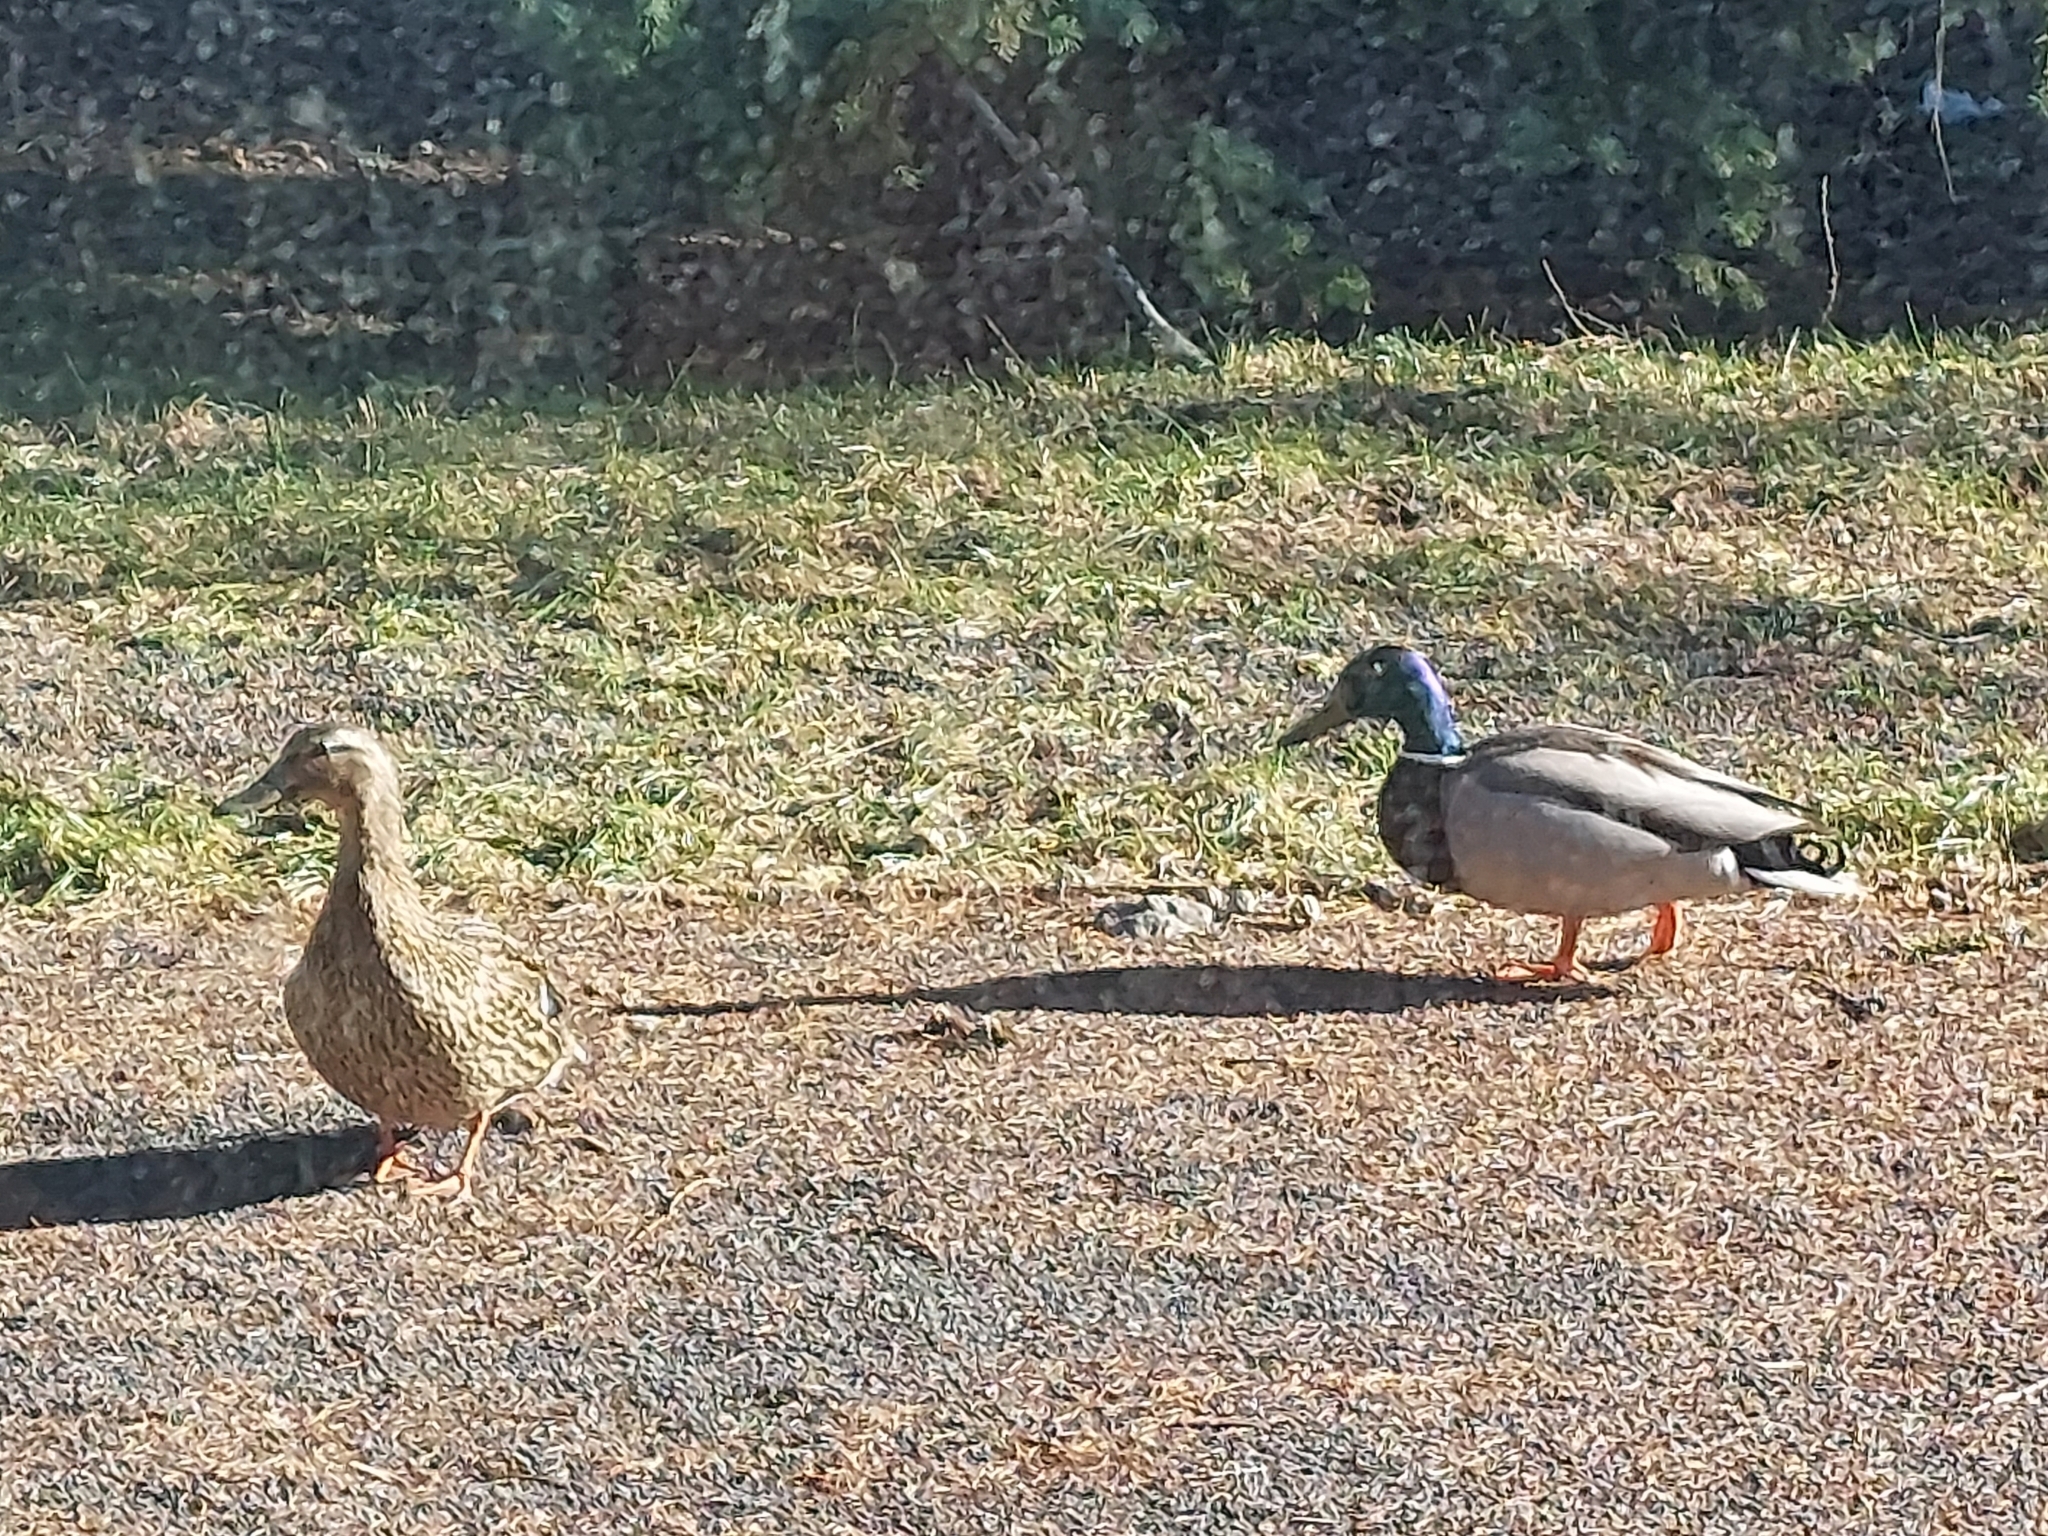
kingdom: Animalia
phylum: Chordata
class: Aves
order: Anseriformes
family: Anatidae
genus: Anas
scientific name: Anas platyrhynchos
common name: Mallard
